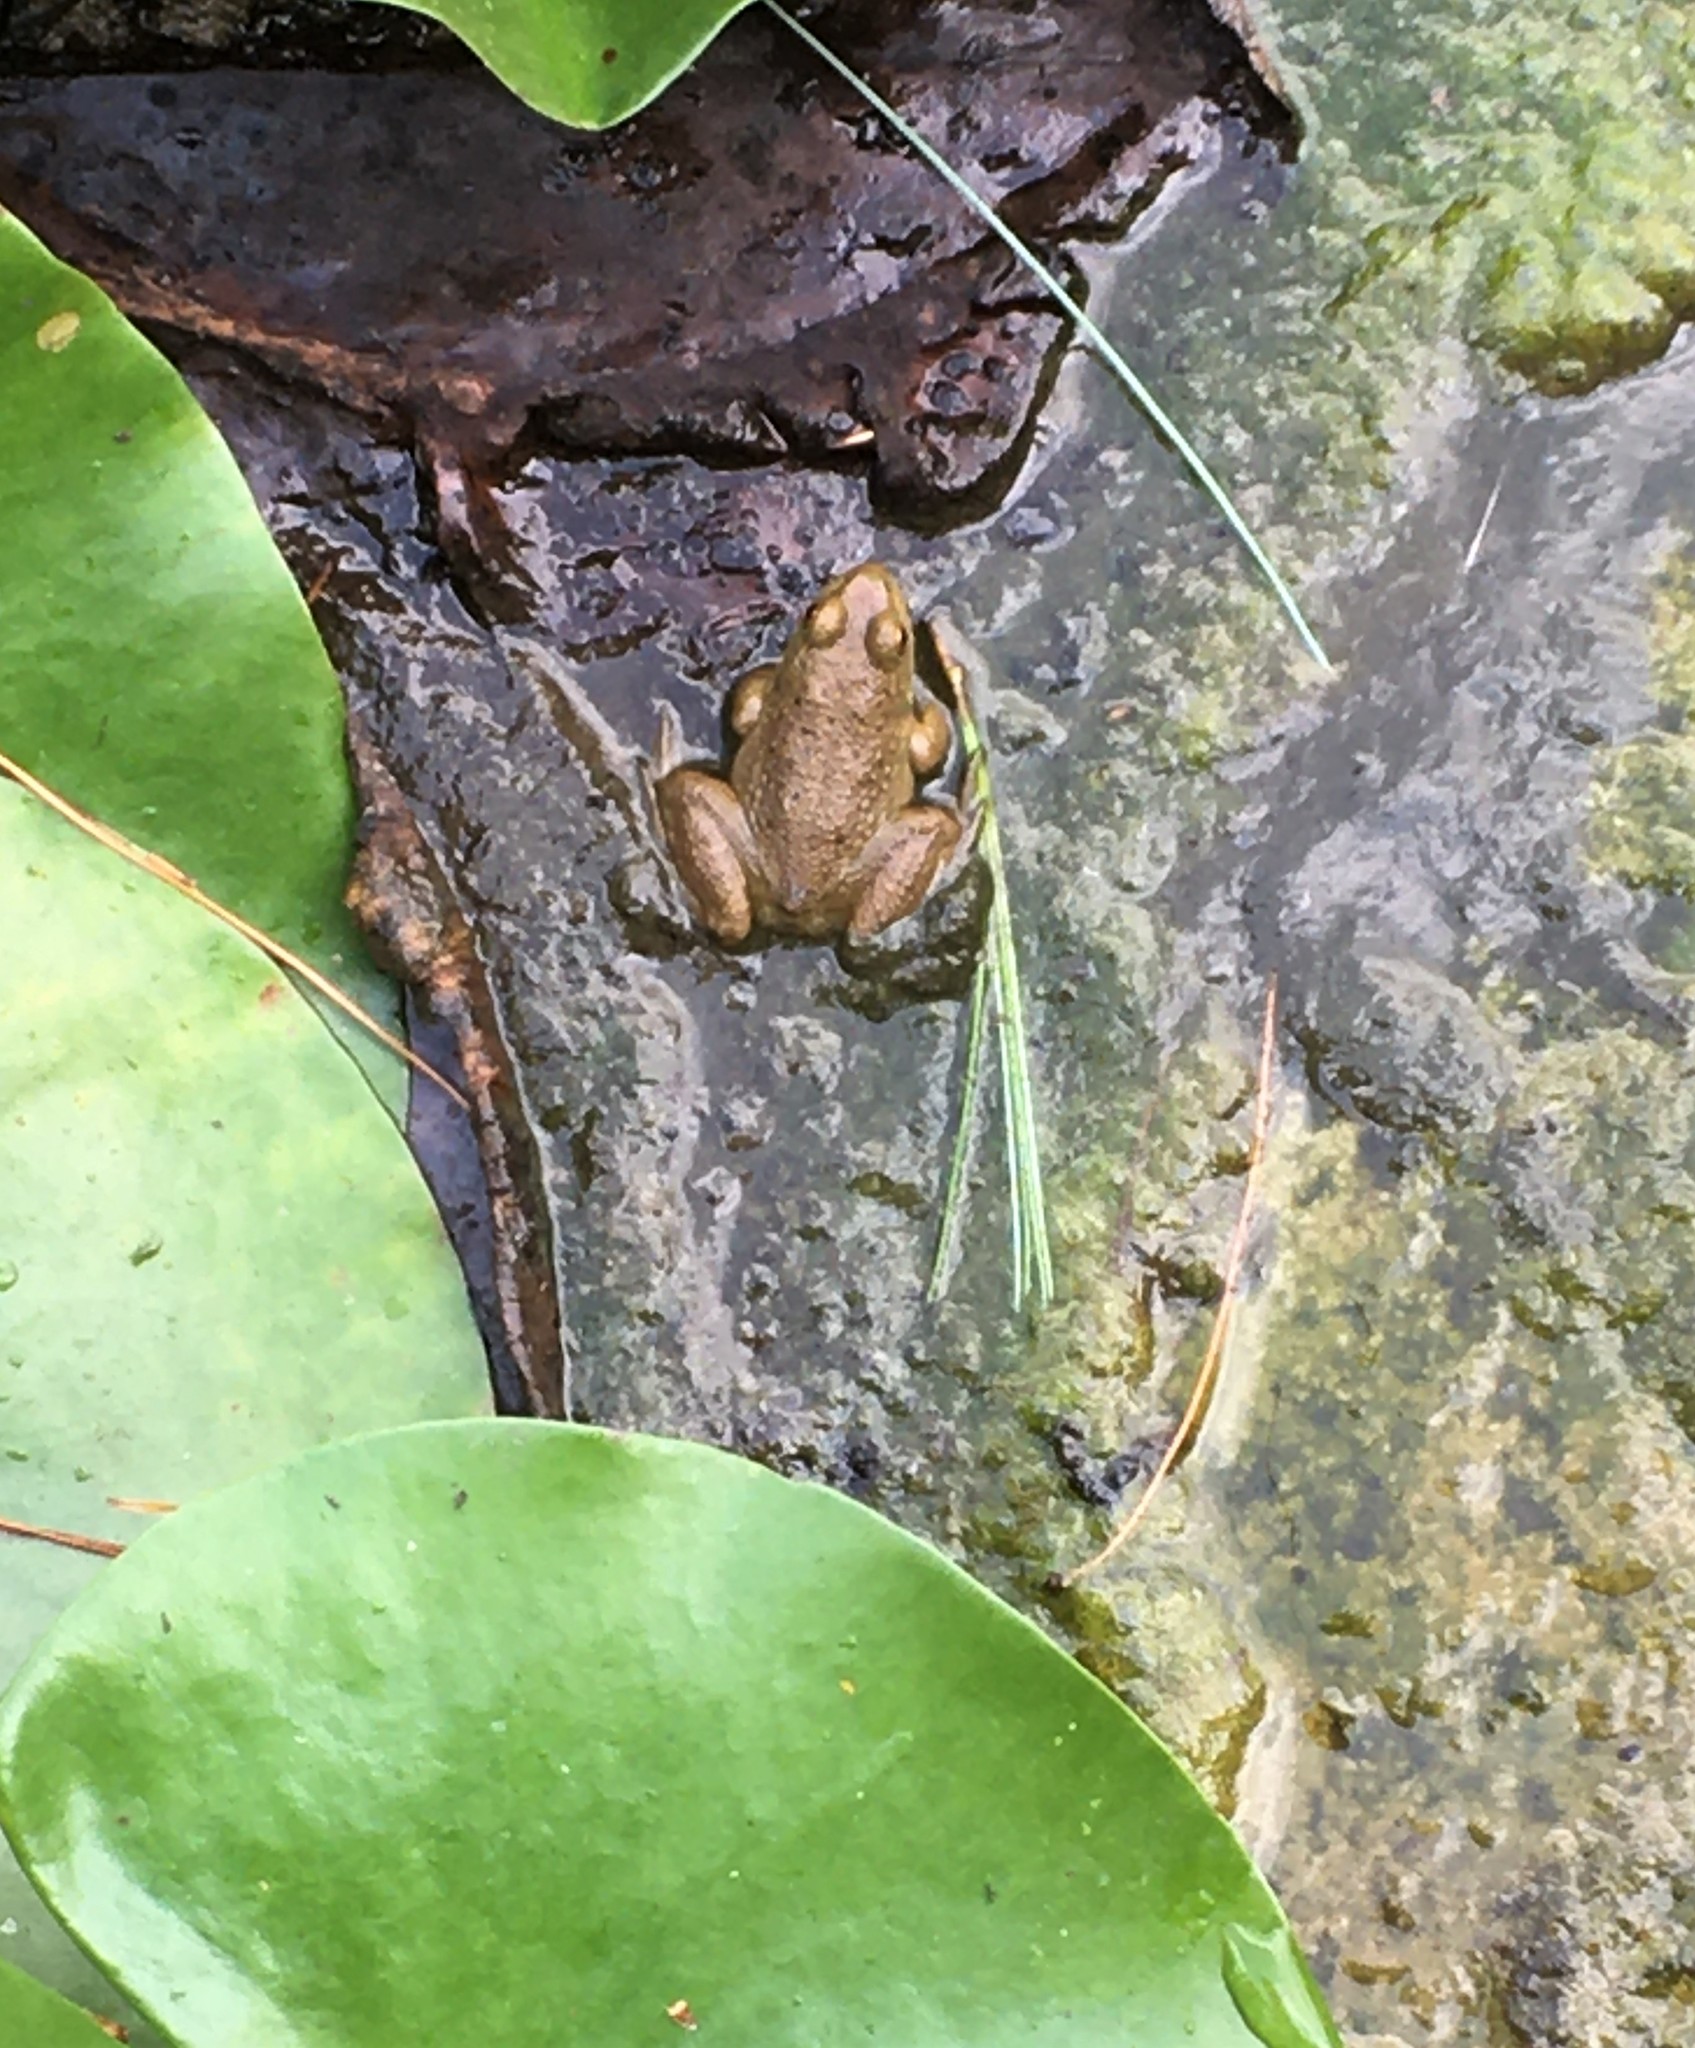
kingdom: Animalia
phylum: Chordata
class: Amphibia
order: Anura
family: Ranidae
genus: Lithobates
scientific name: Lithobates catesbeianus
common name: American bullfrog
